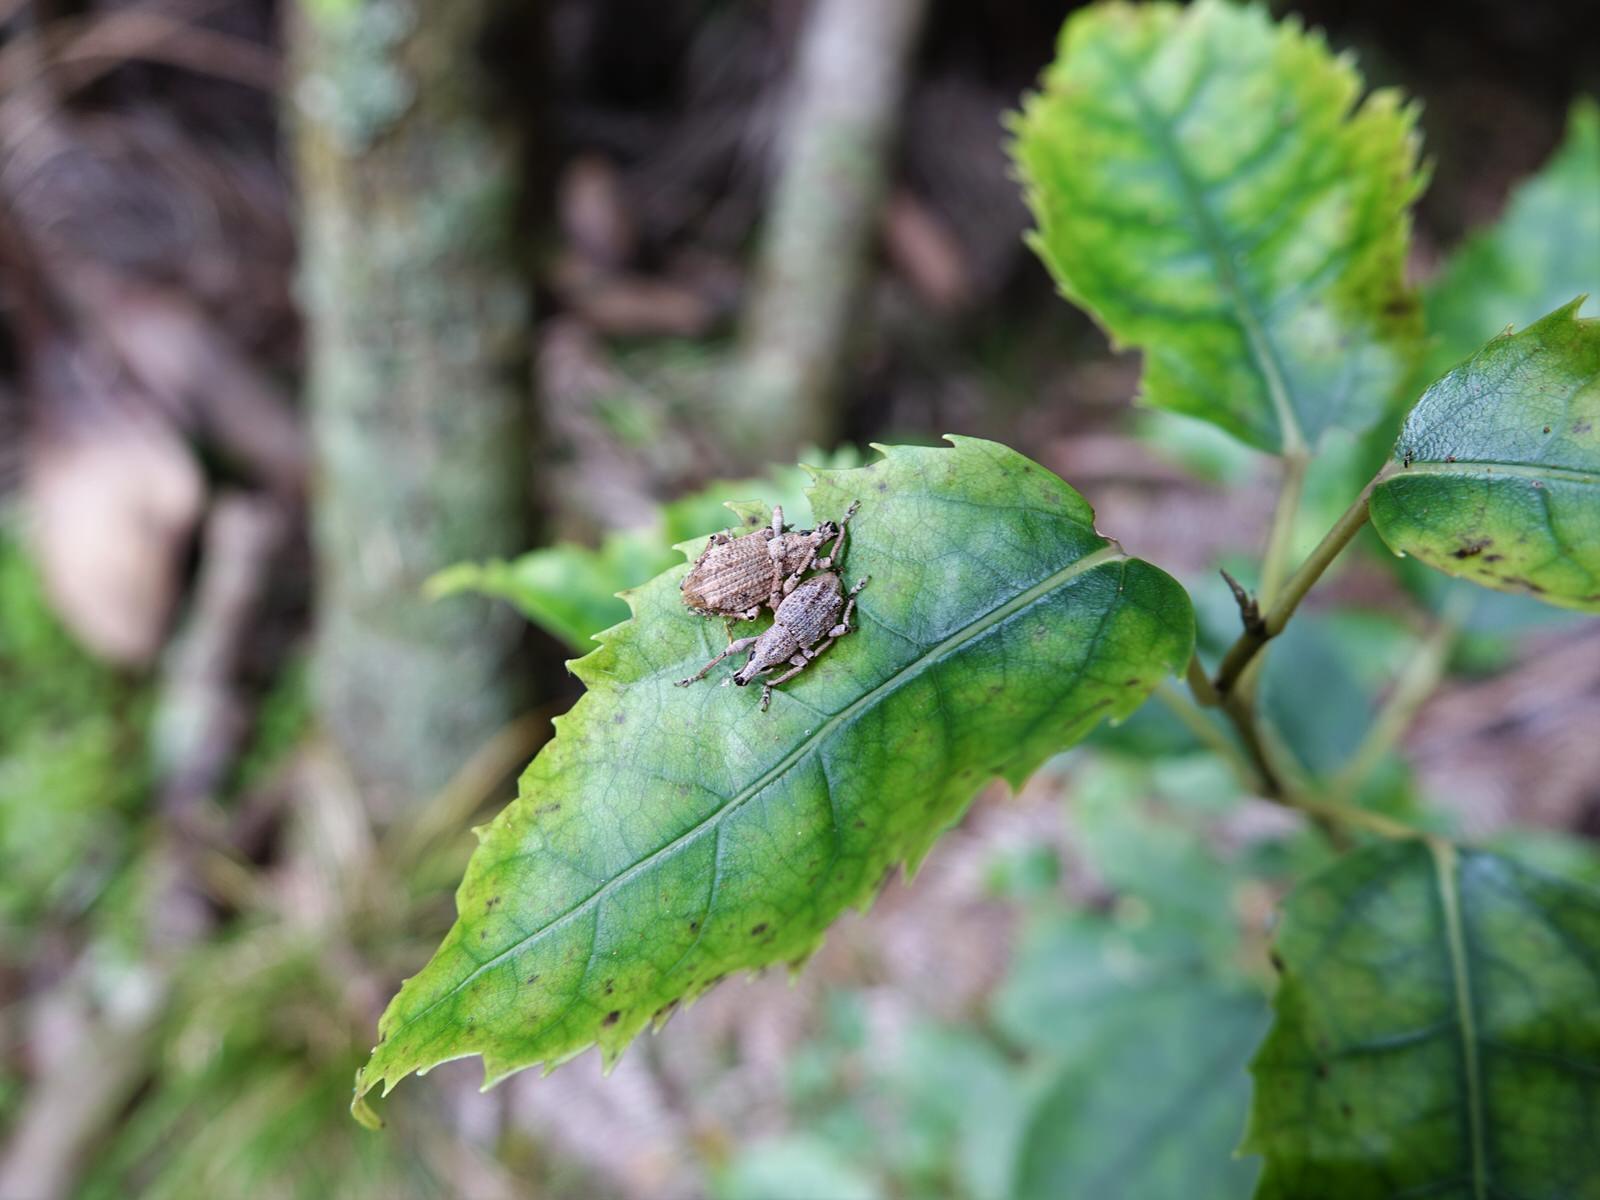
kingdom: Animalia
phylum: Arthropoda
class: Insecta
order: Coleoptera
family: Curculionidae
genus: Catoptes
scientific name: Catoptes binodis
